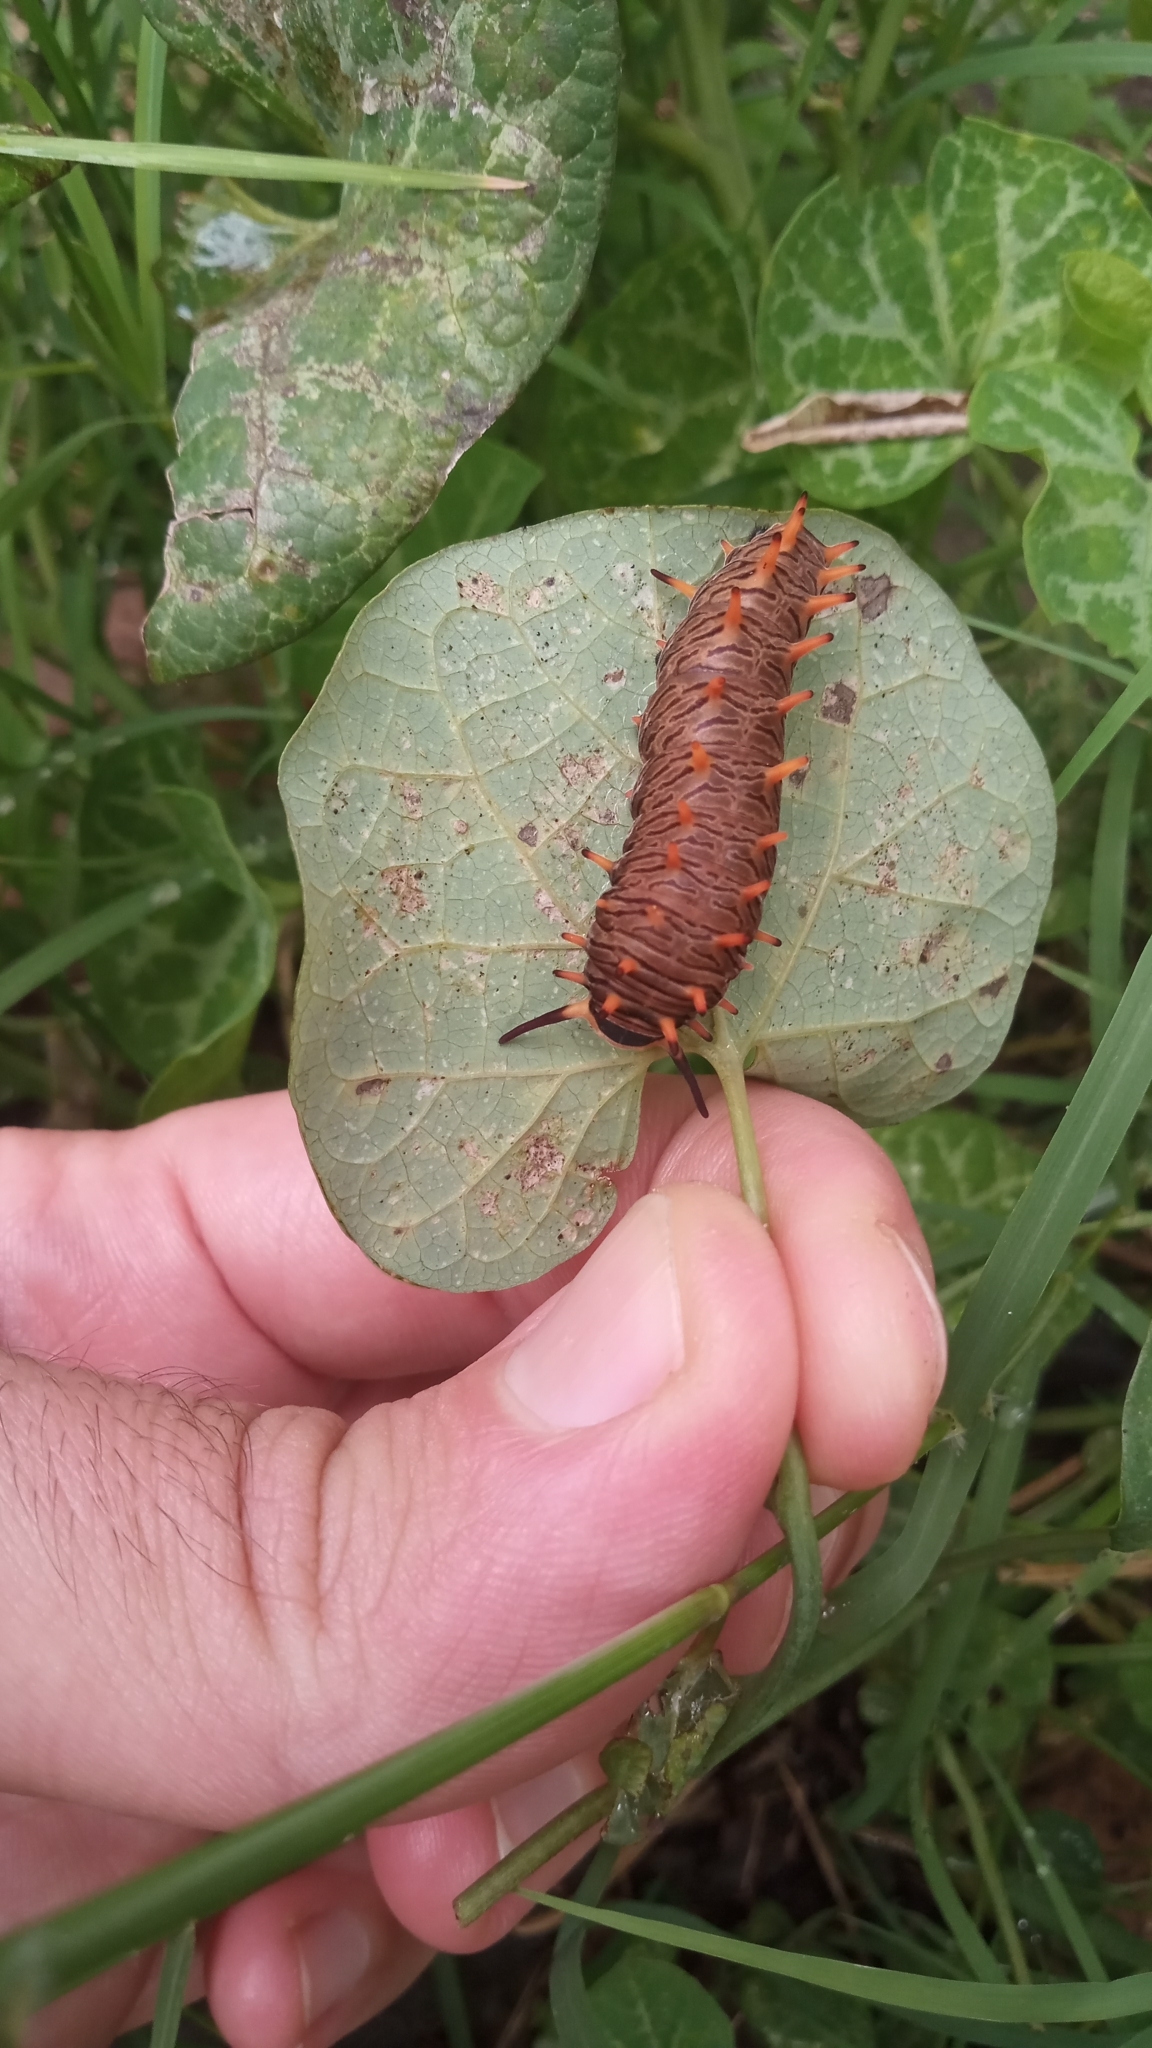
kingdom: Animalia
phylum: Arthropoda
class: Insecta
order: Lepidoptera
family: Papilionidae
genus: Battus
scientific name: Battus polydamas
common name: Polydamas swallowtail
